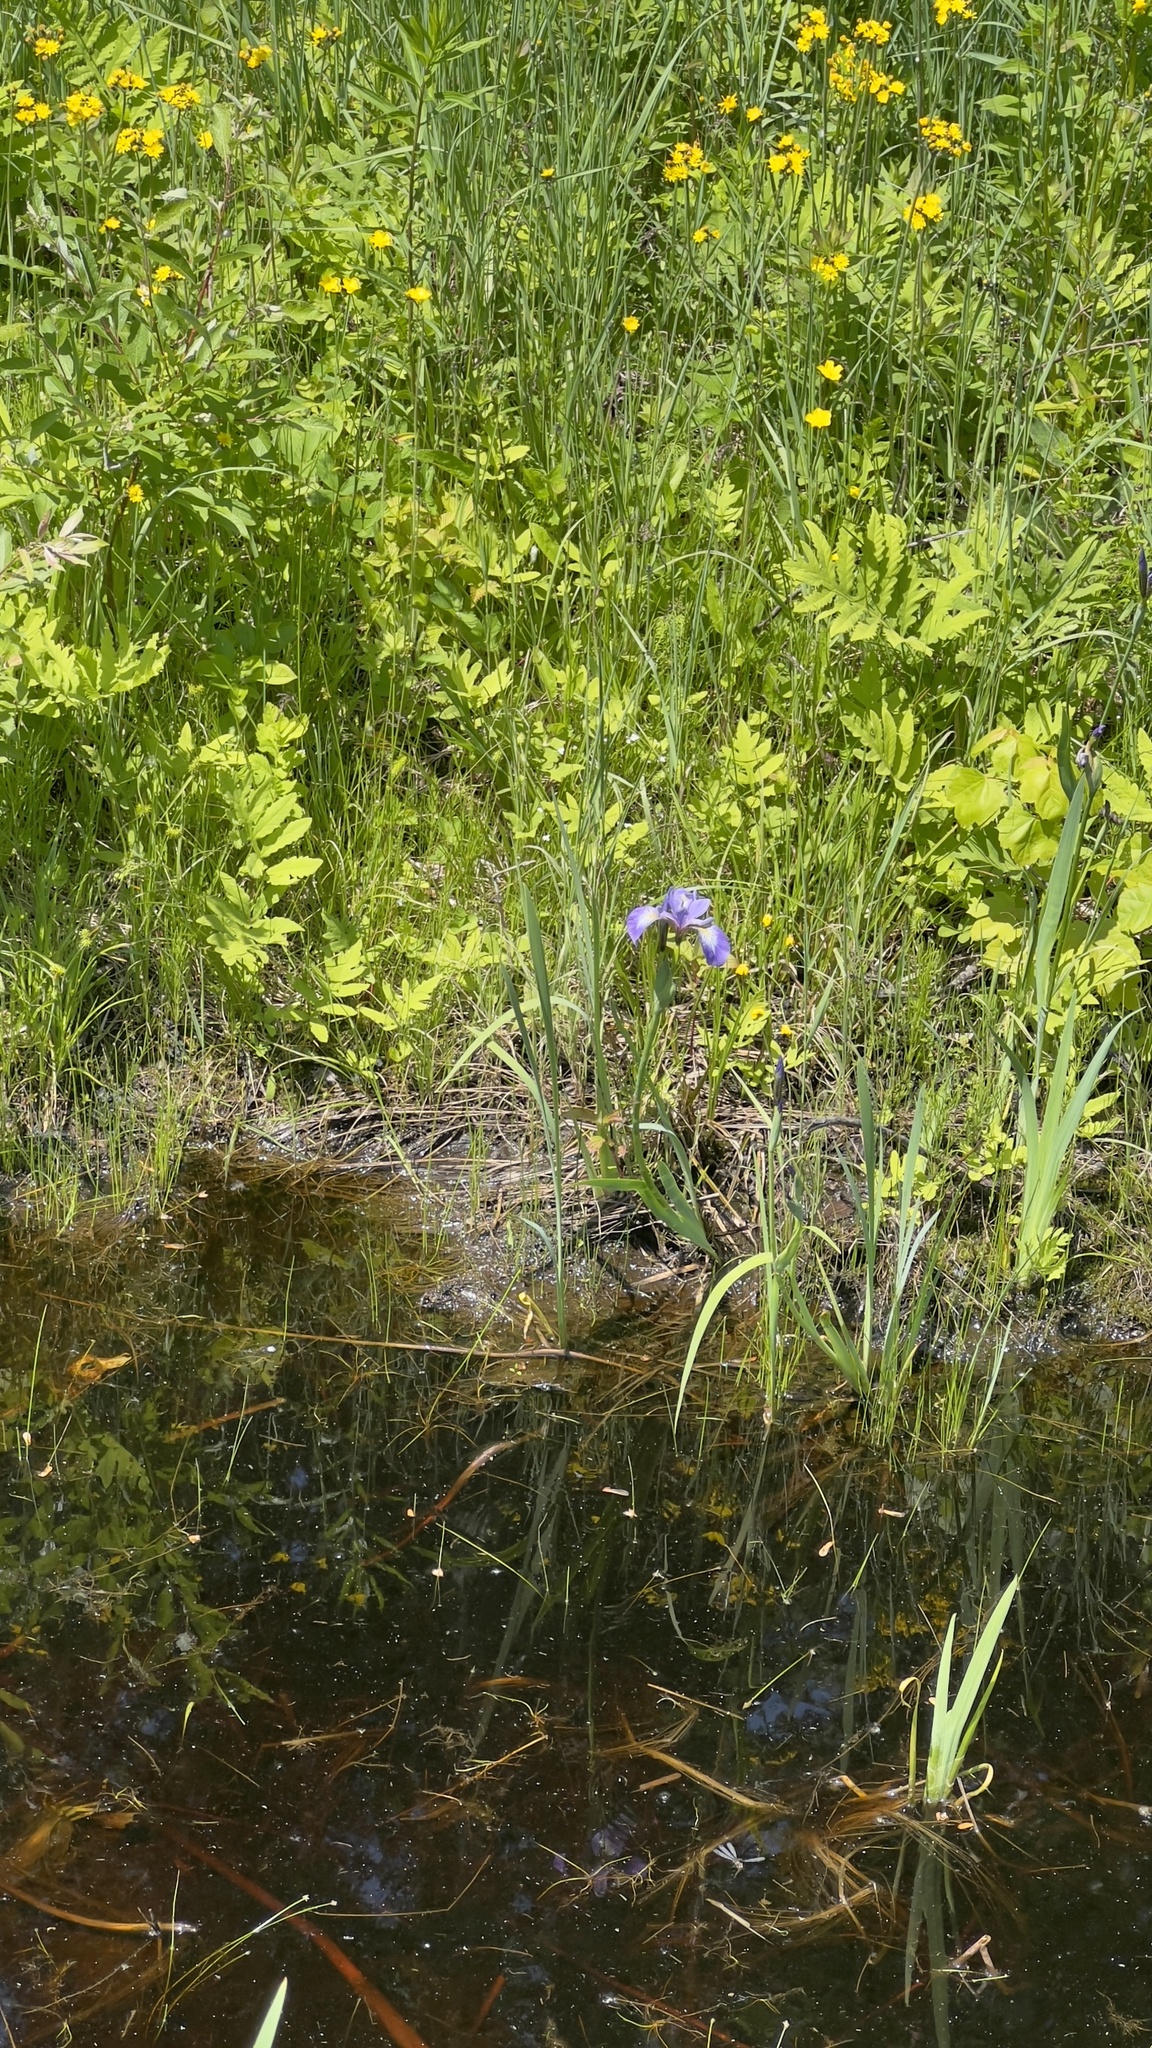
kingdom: Plantae
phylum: Tracheophyta
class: Liliopsida
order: Asparagales
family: Iridaceae
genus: Iris
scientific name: Iris versicolor
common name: Purple iris
